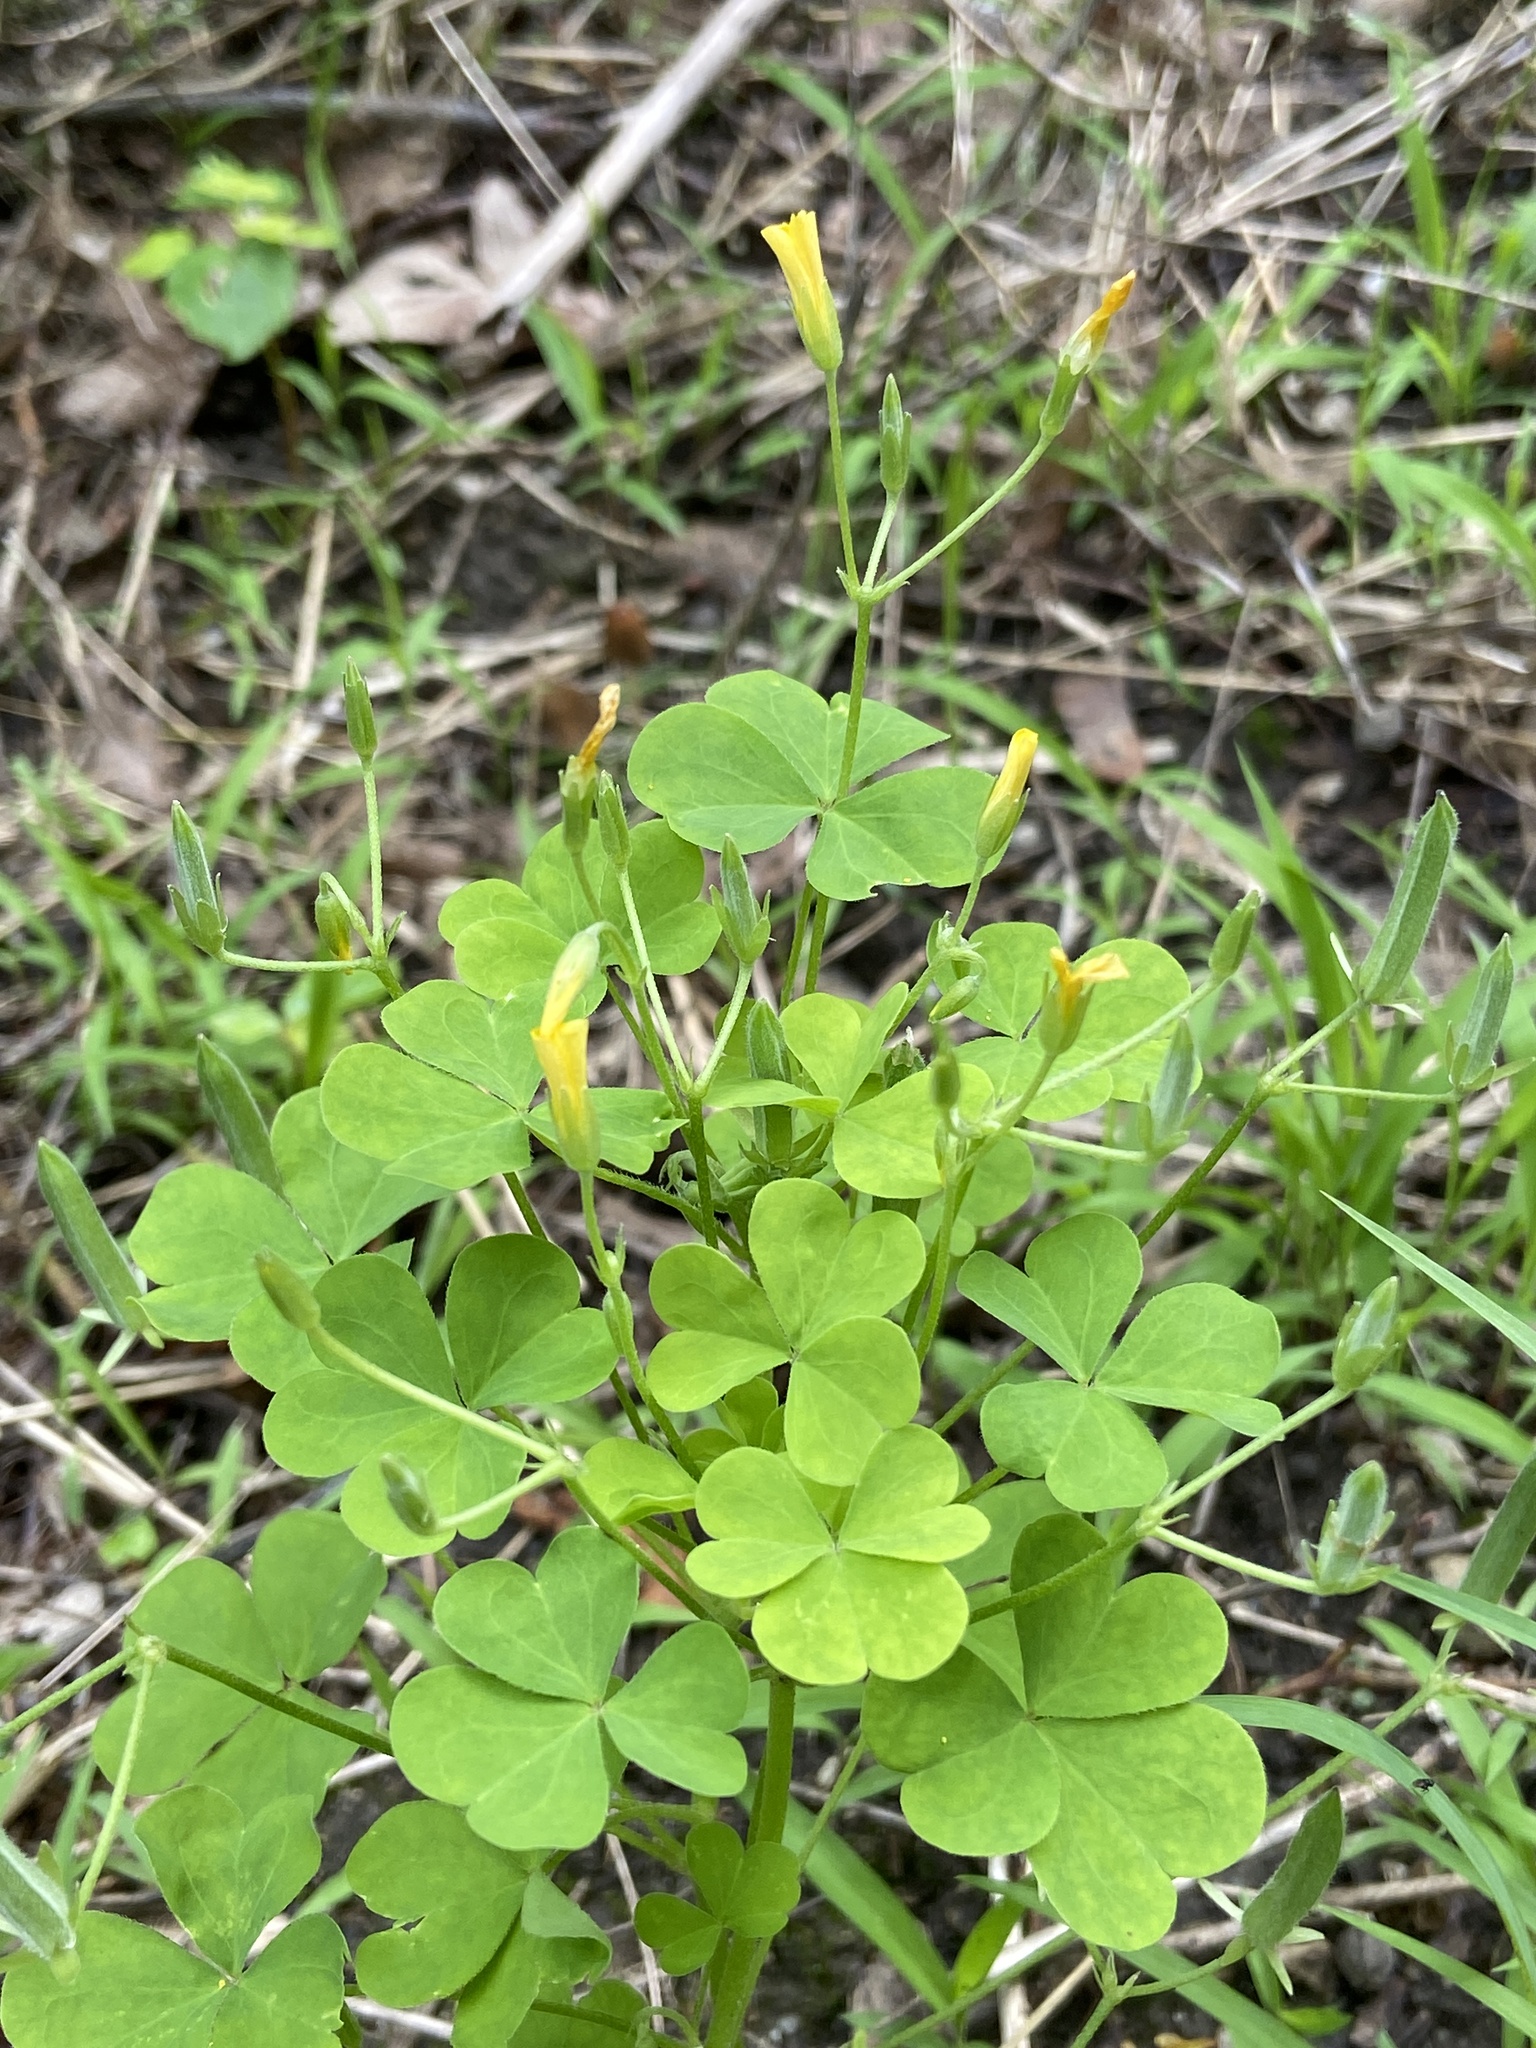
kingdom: Plantae
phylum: Tracheophyta
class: Magnoliopsida
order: Oxalidales
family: Oxalidaceae
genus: Oxalis
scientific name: Oxalis dillenii
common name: Sussex yellow-sorrel
